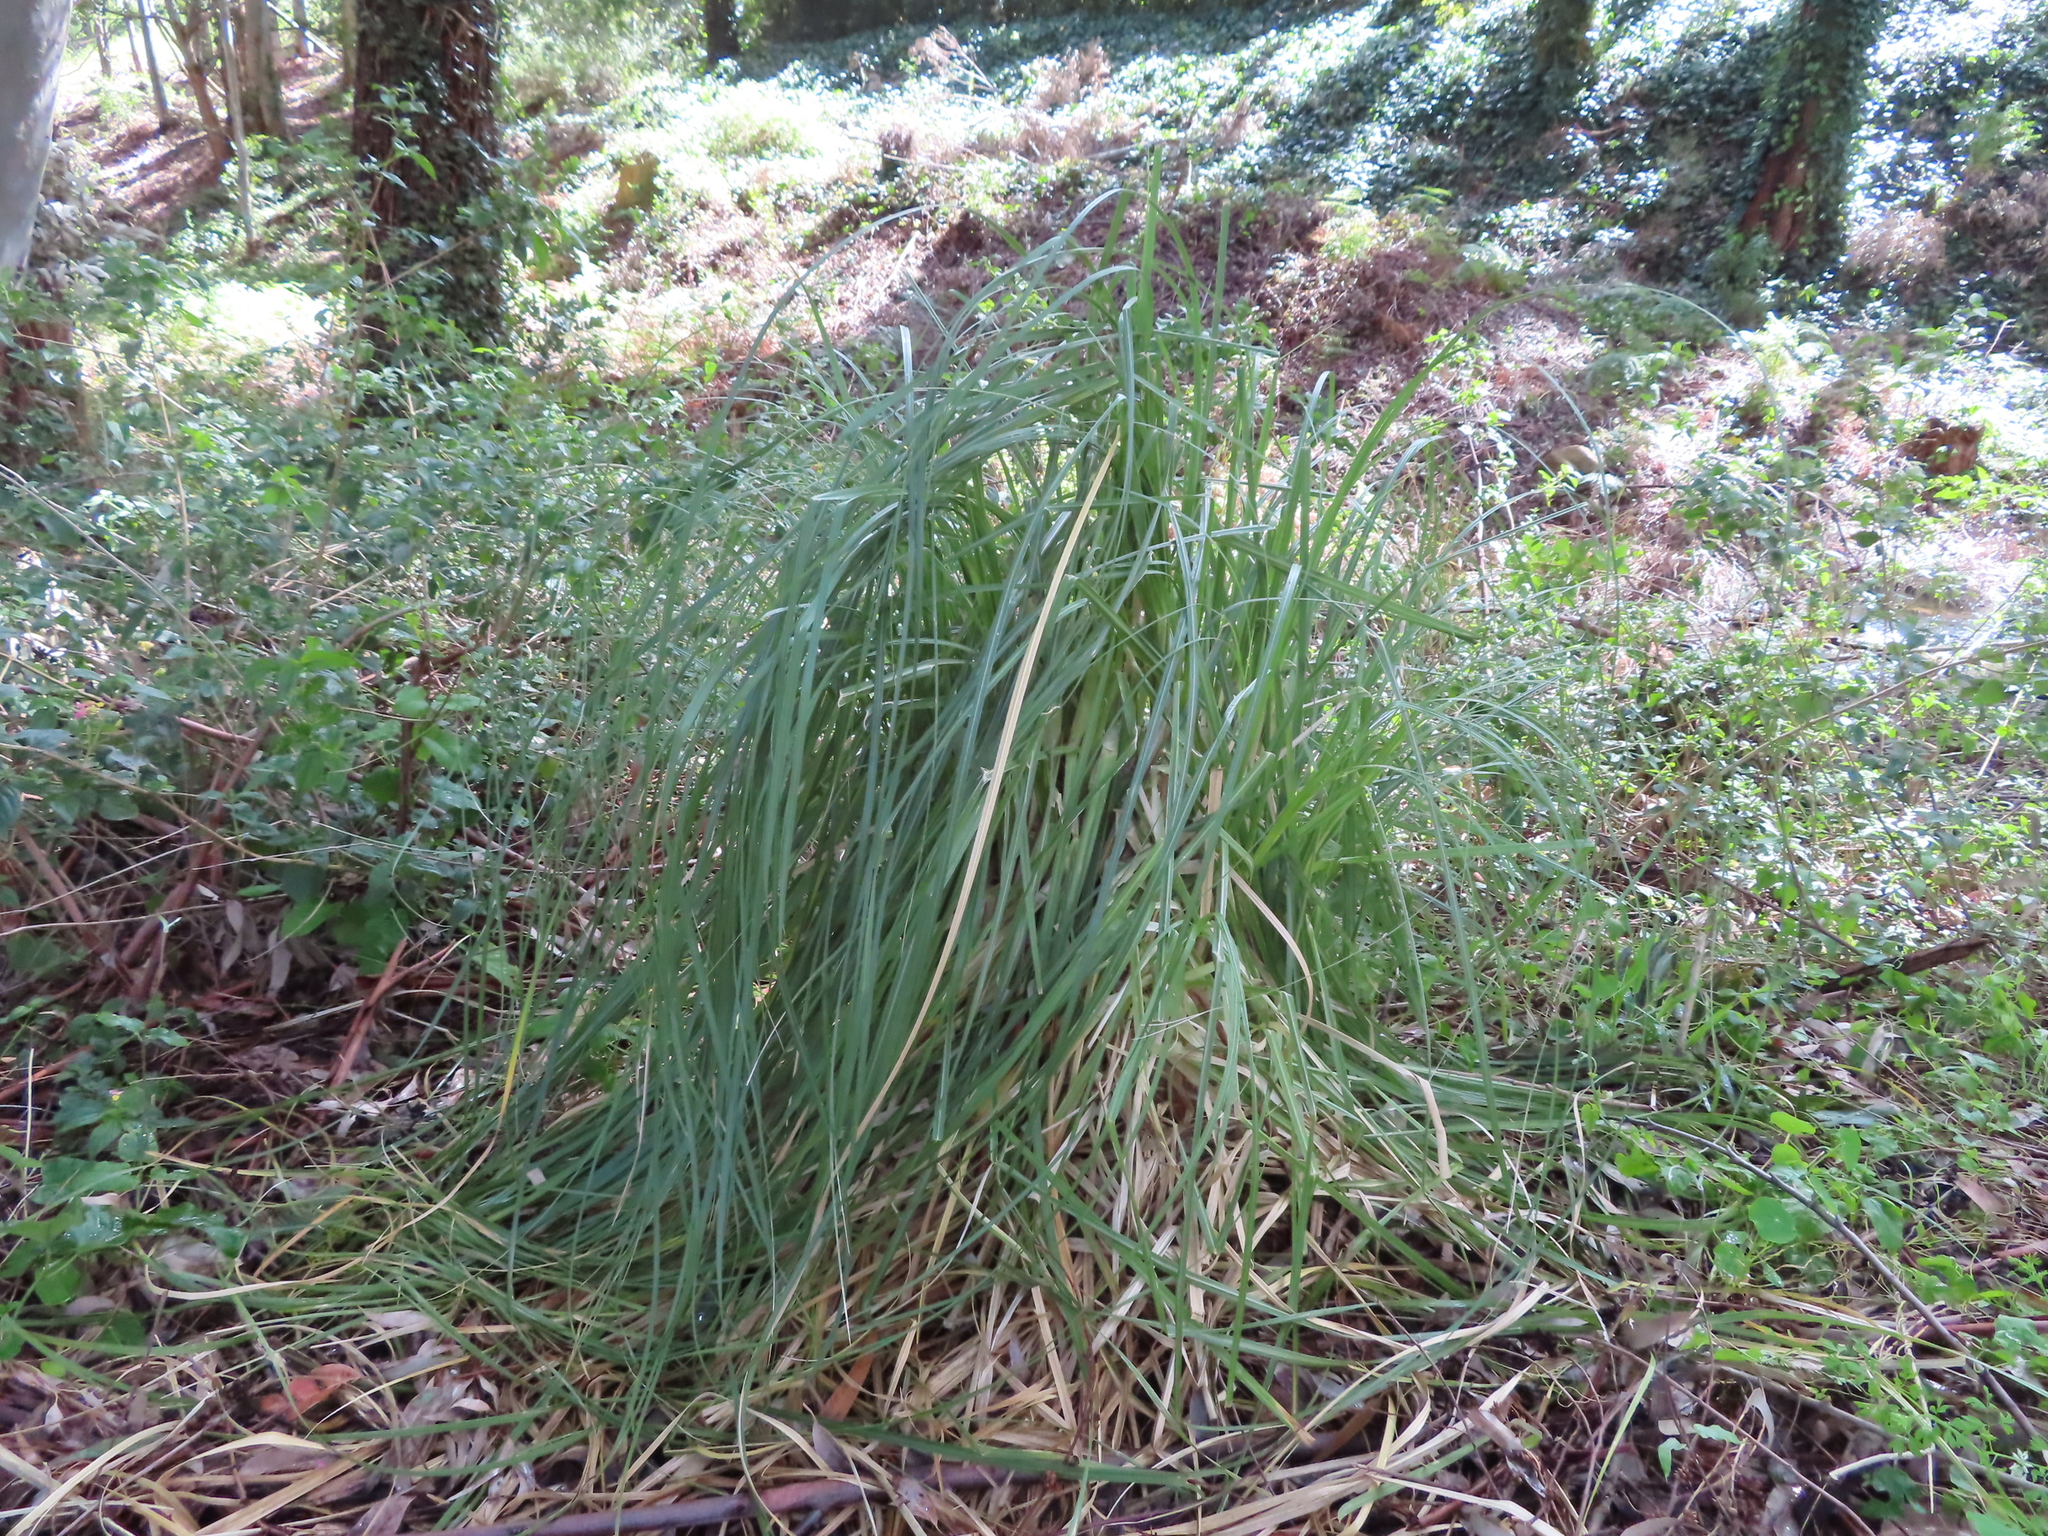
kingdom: Plantae
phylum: Tracheophyta
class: Liliopsida
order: Poales
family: Poaceae
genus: Cortaderia
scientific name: Cortaderia selloana
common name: Uruguayan pampas grass
